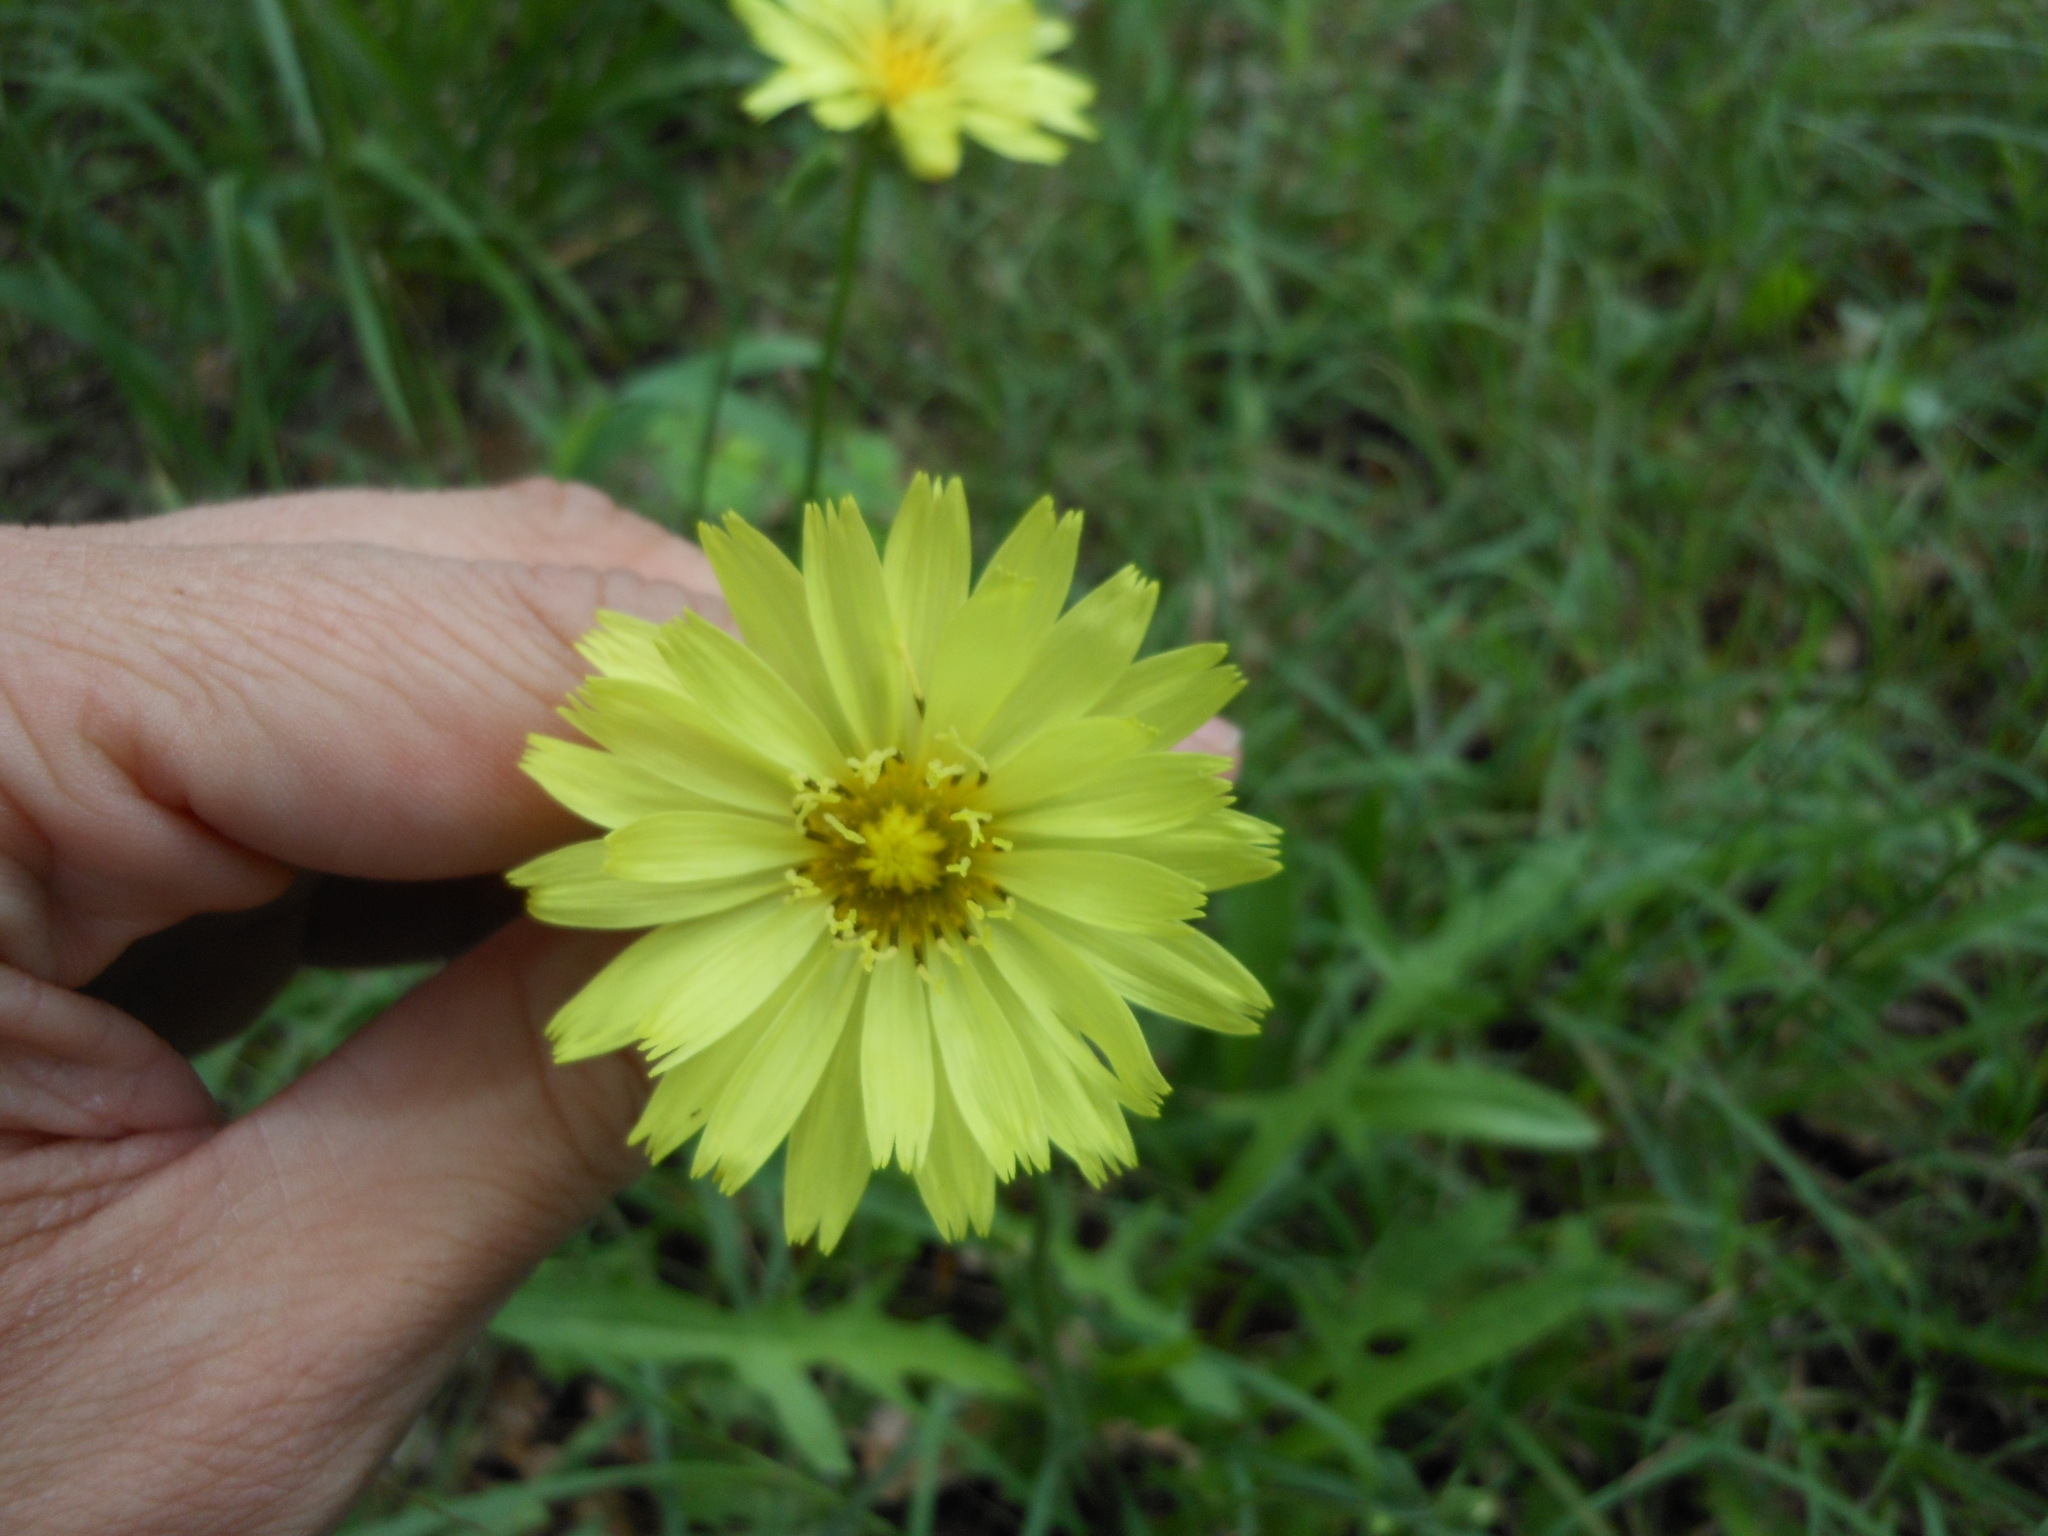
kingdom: Plantae
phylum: Tracheophyta
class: Magnoliopsida
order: Asterales
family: Asteraceae
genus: Pyrrhopappus
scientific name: Pyrrhopappus carolinianus
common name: Carolina desert-chicory
